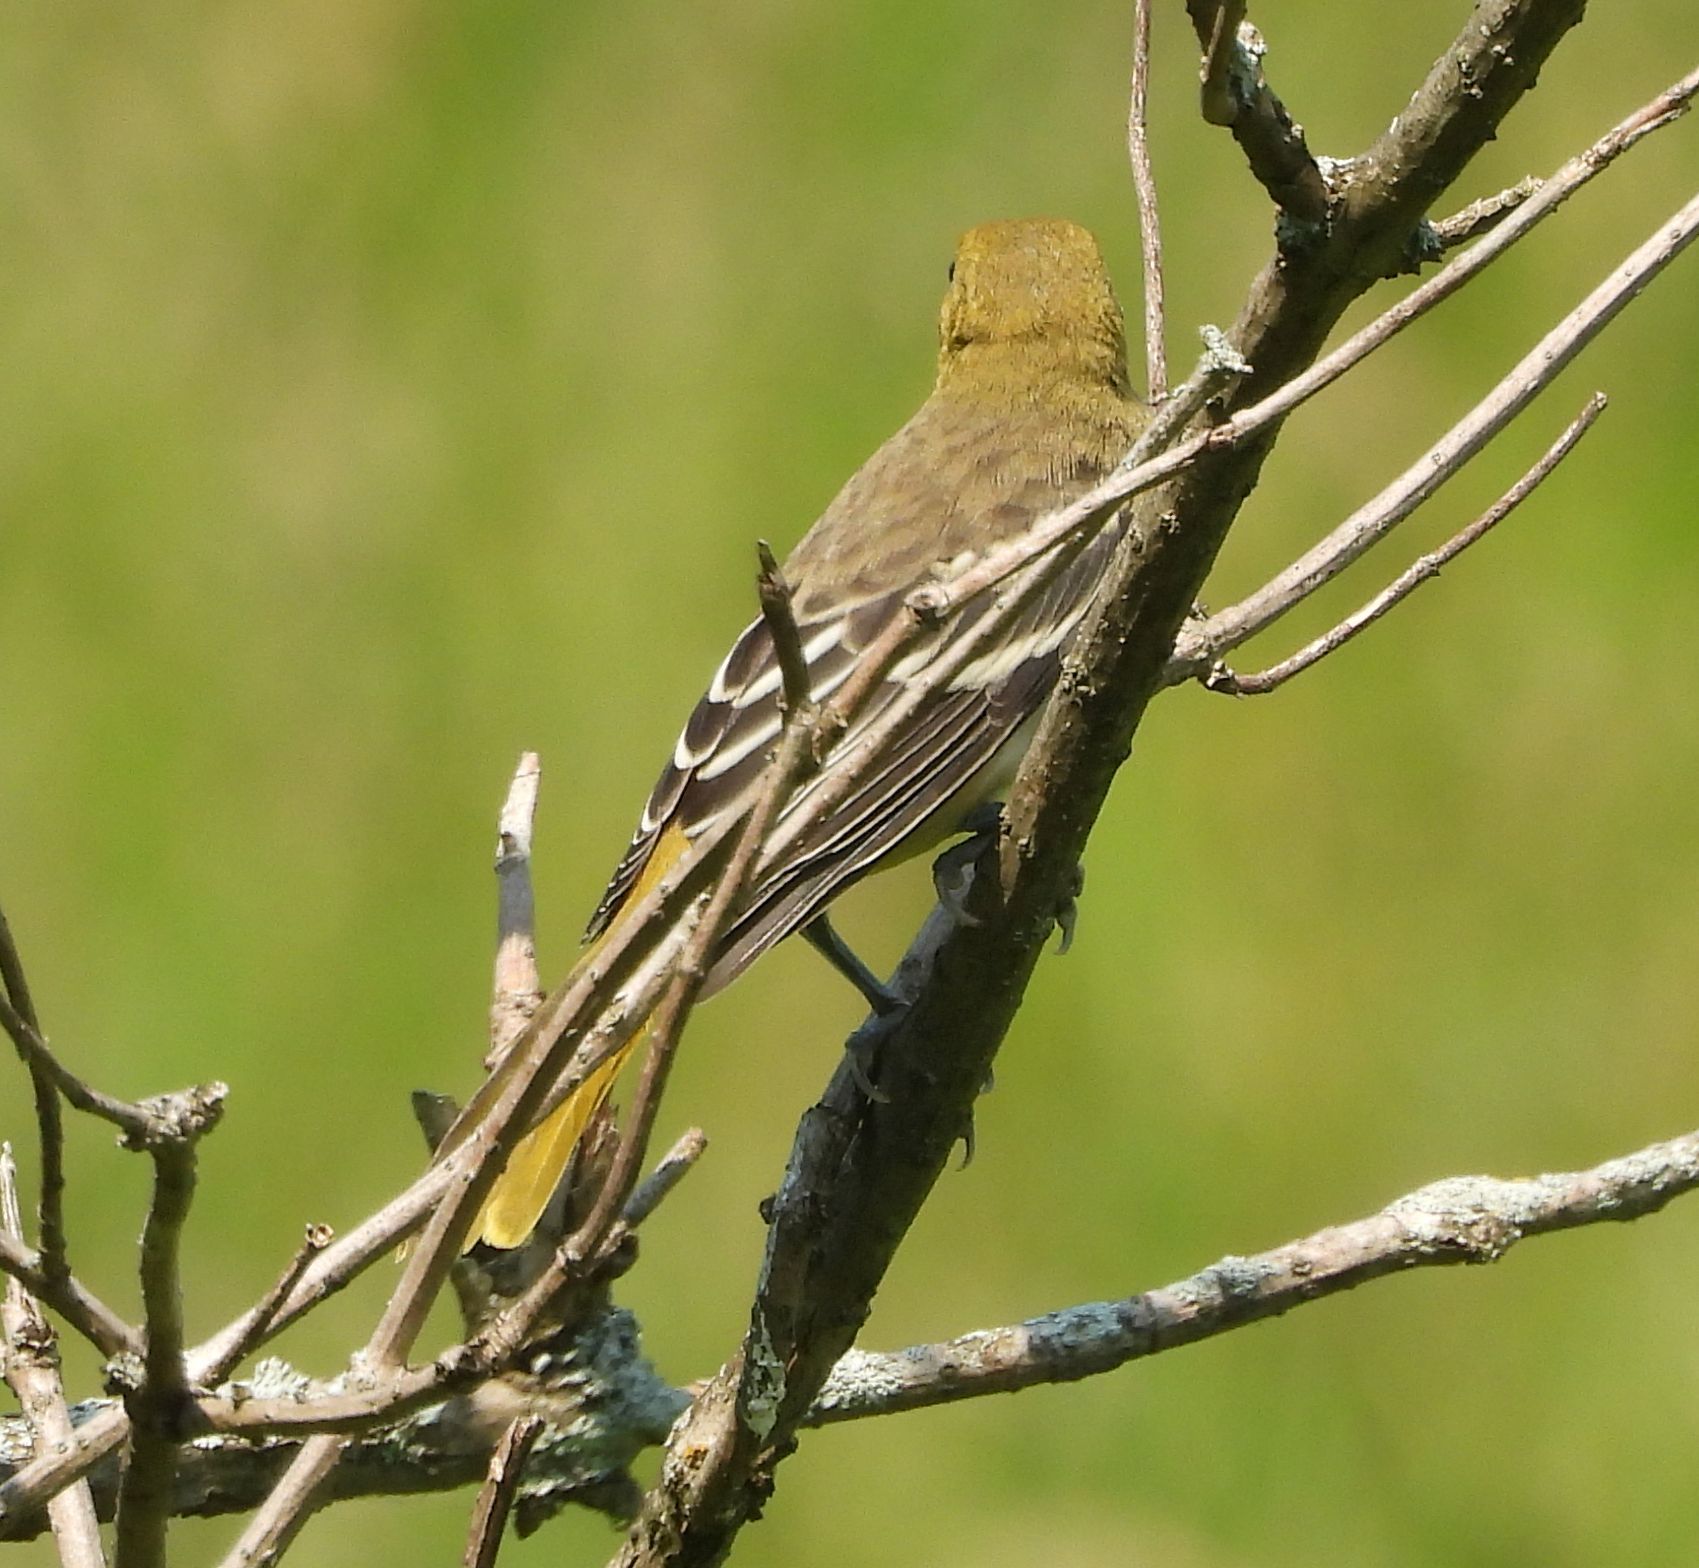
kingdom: Animalia
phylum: Chordata
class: Aves
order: Passeriformes
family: Icteridae
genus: Icterus
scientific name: Icterus galbula
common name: Baltimore oriole
